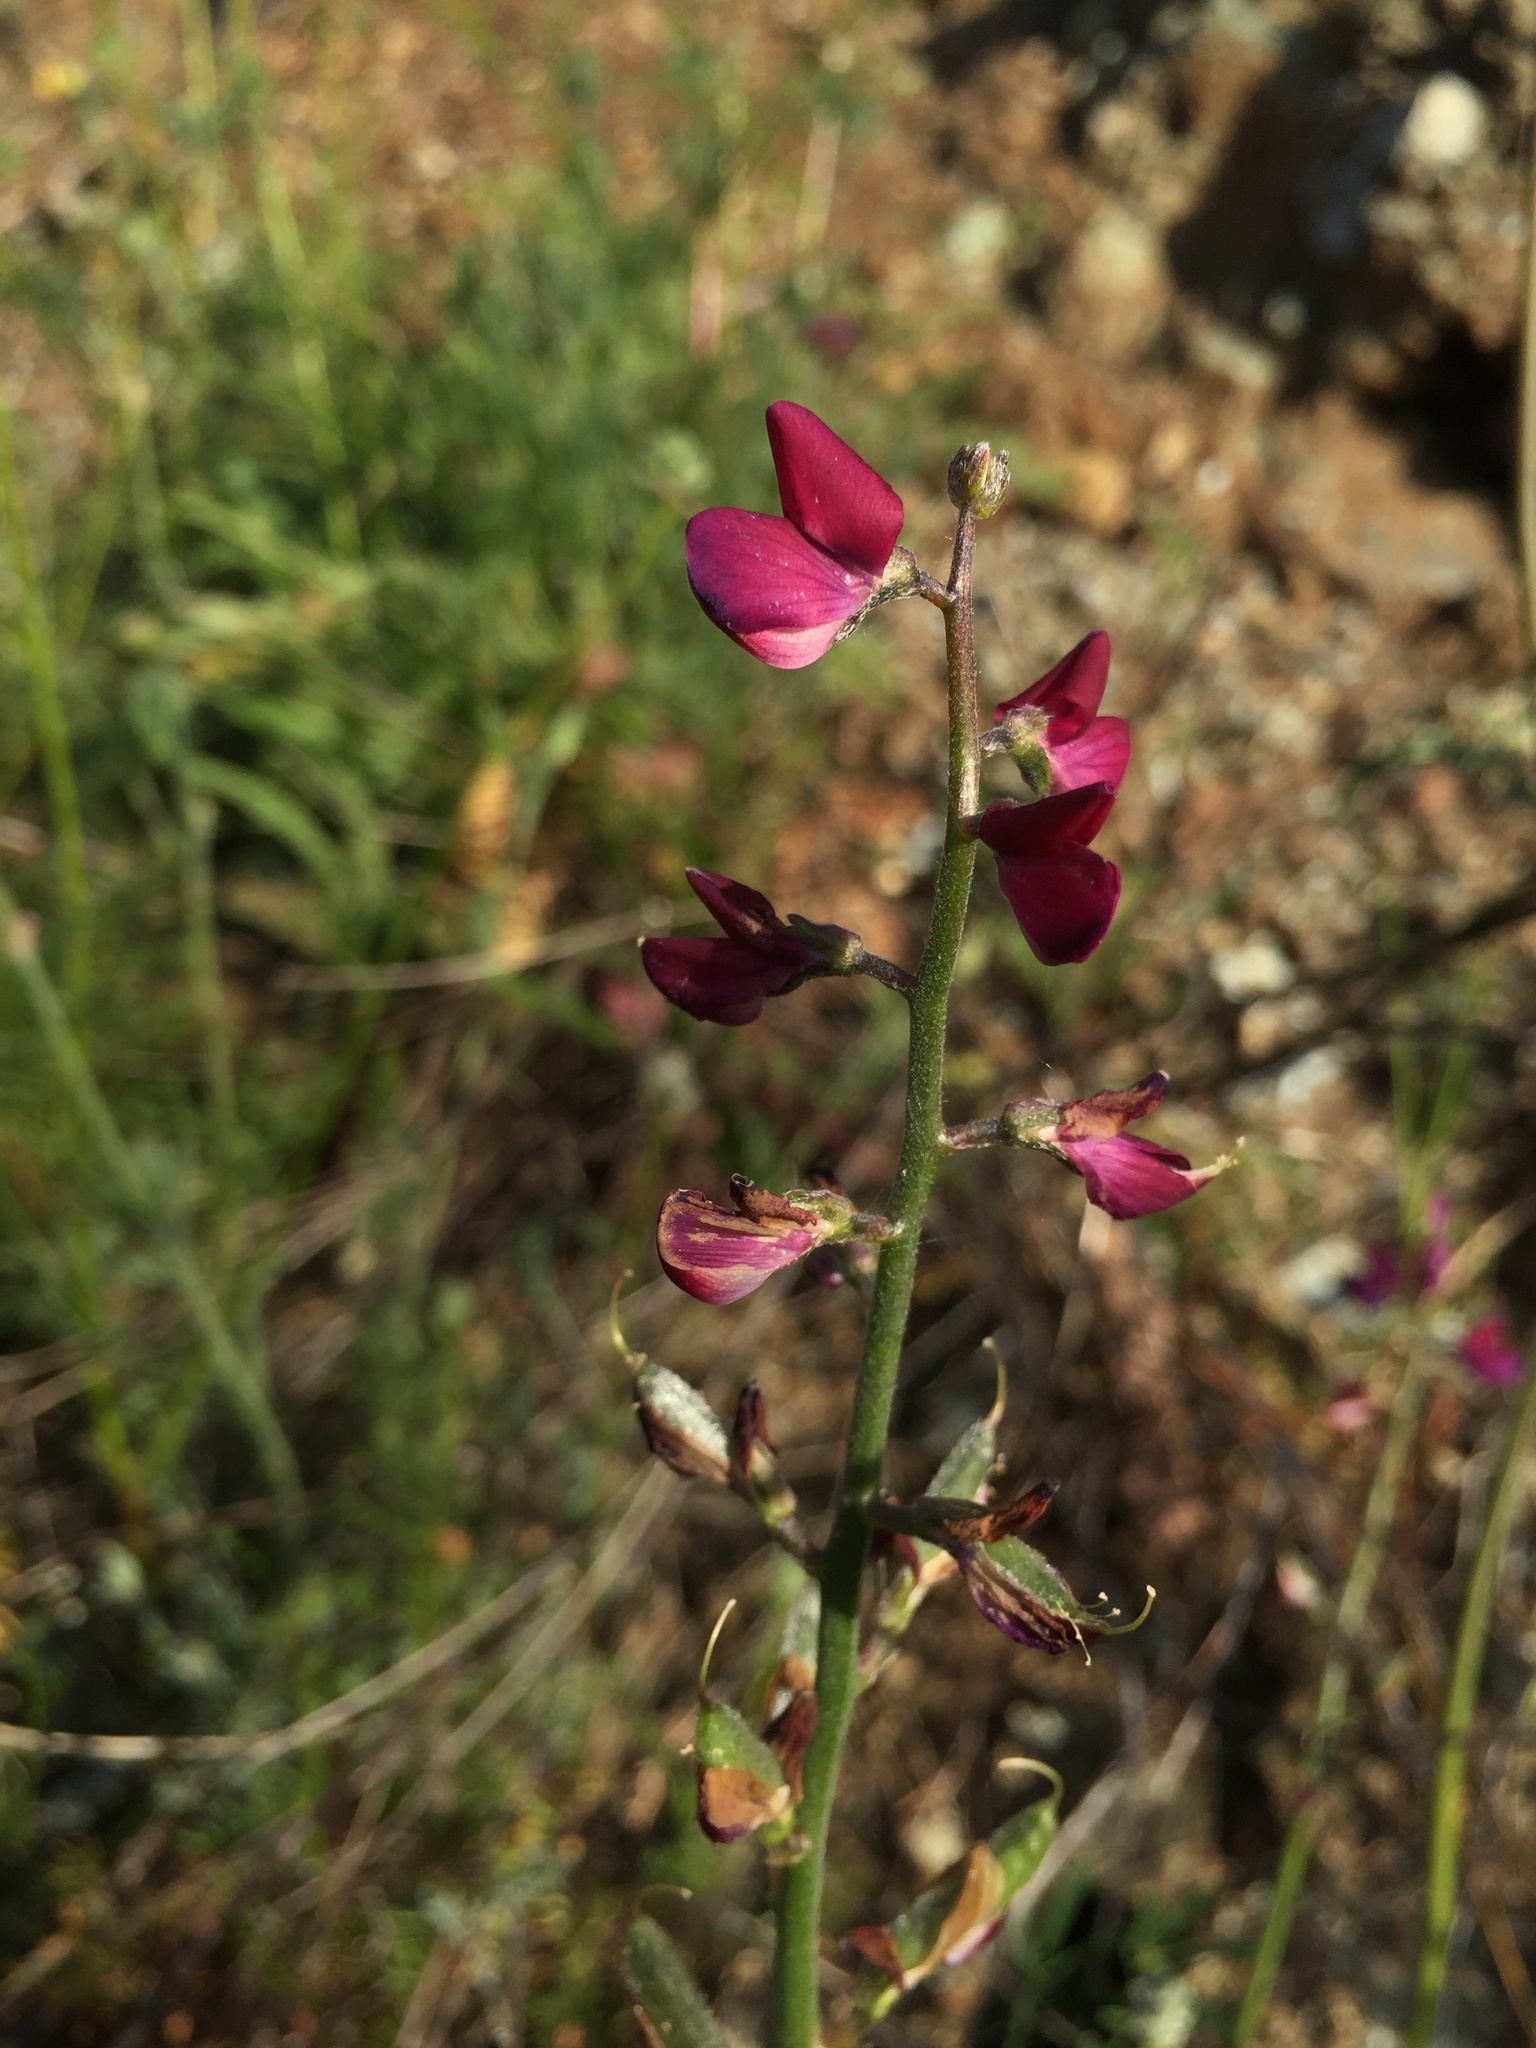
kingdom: Plantae
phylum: Tracheophyta
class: Magnoliopsida
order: Fabales
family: Fabaceae
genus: Lupinus
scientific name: Lupinus truncatus
